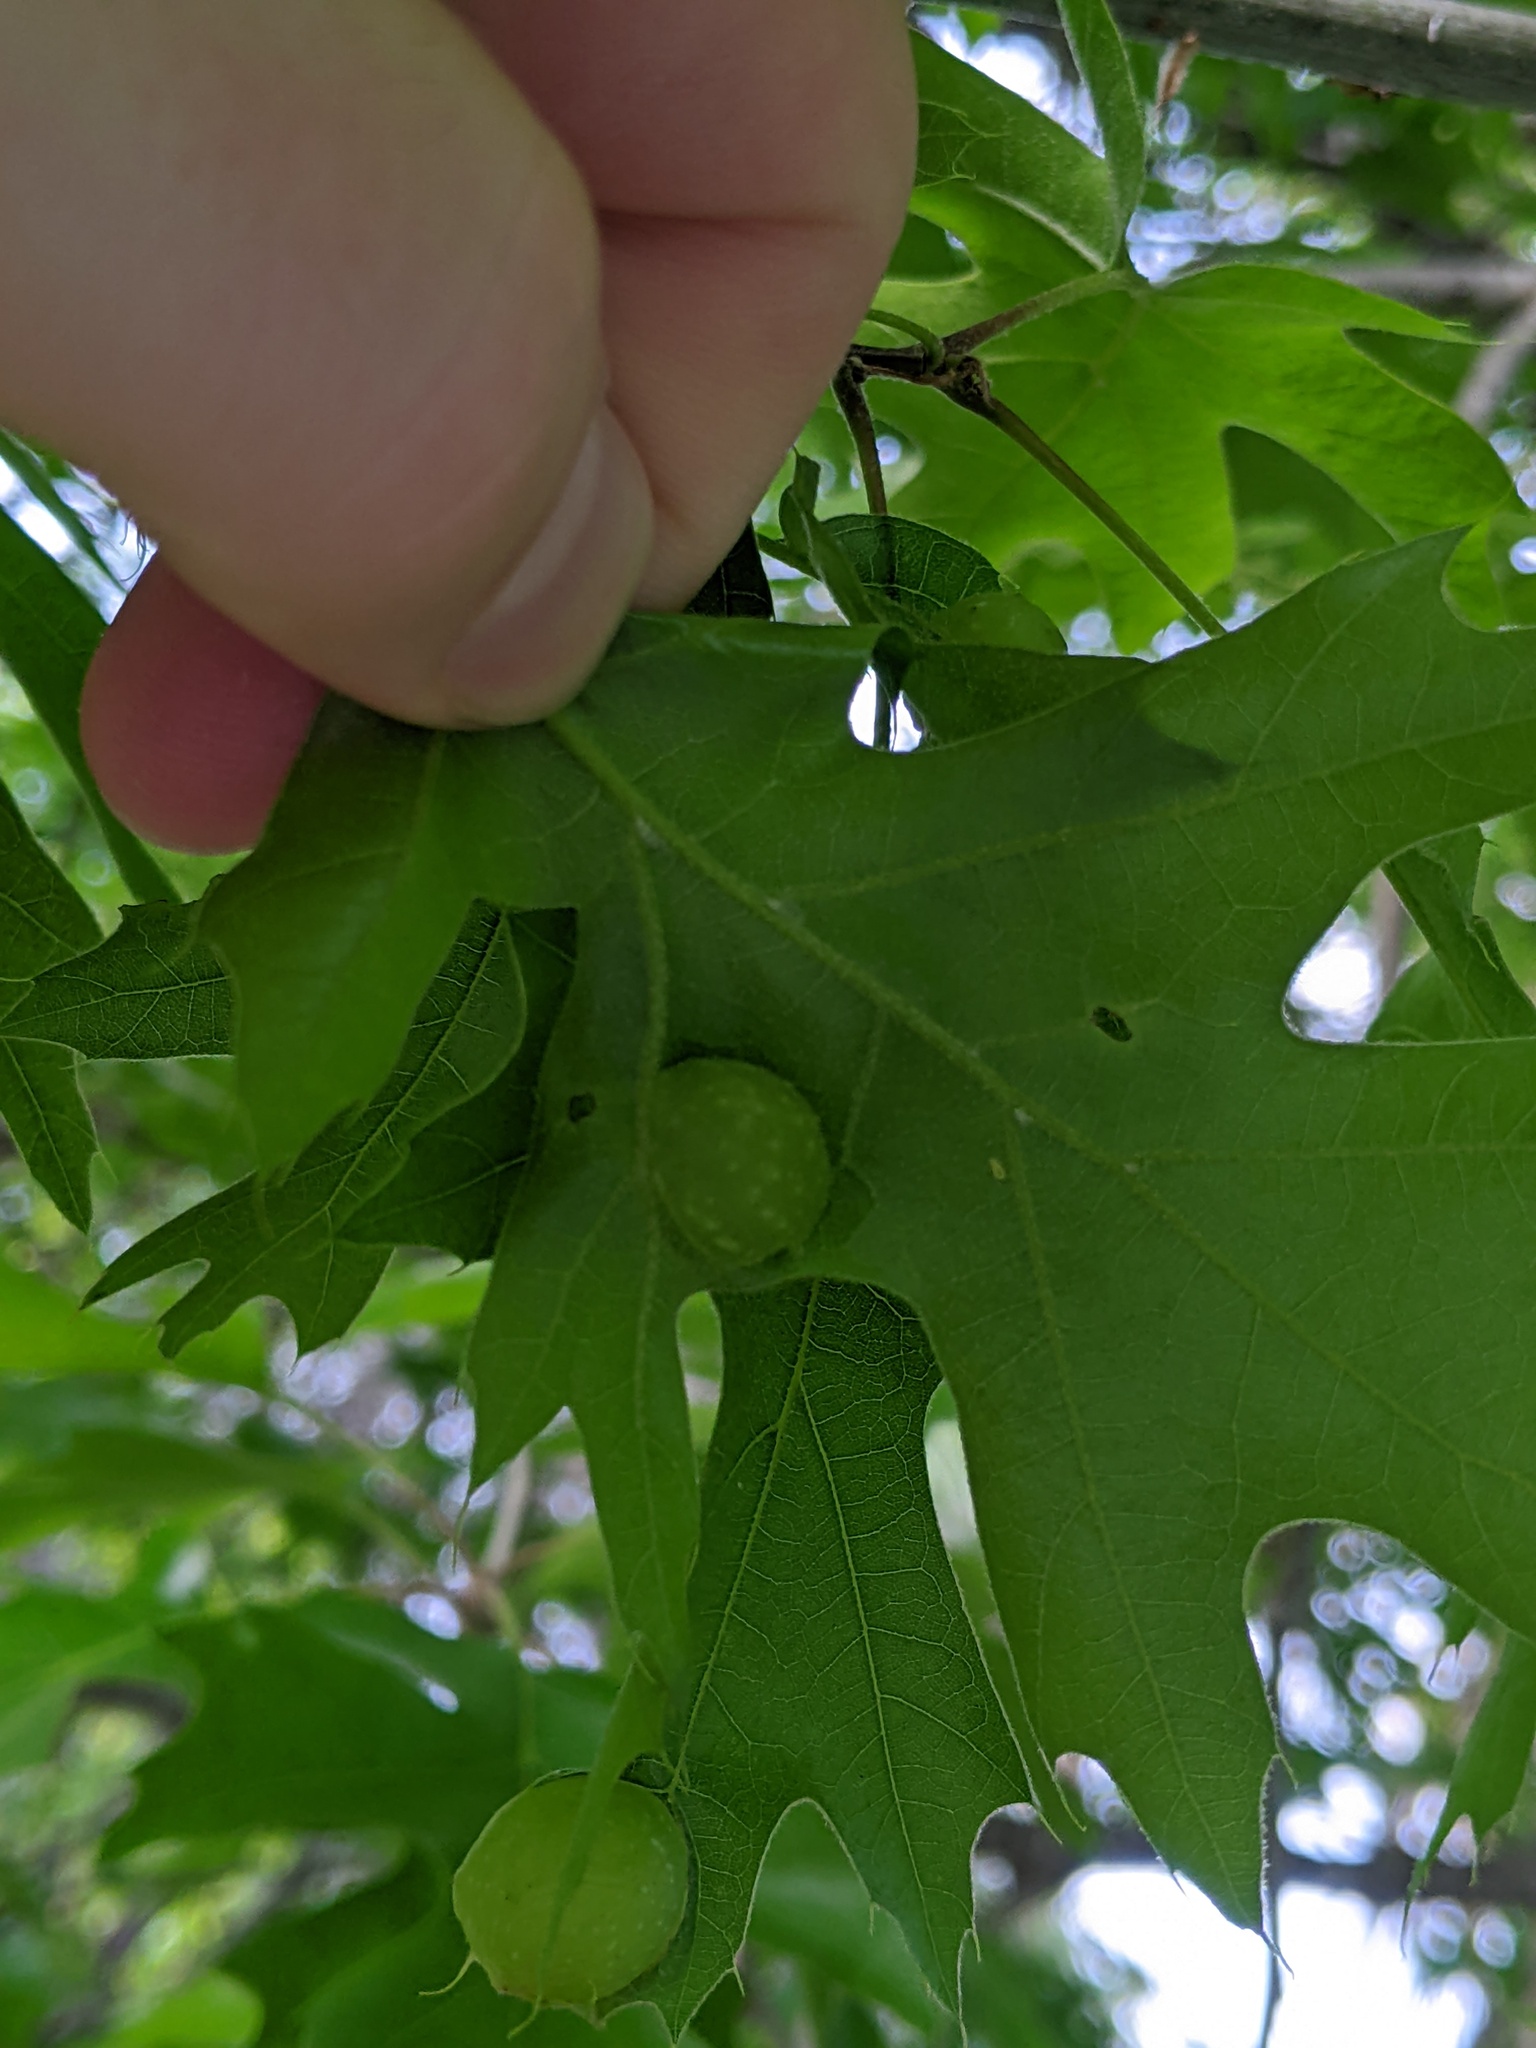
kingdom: Animalia
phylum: Arthropoda
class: Insecta
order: Hymenoptera
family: Cynipidae
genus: Dryocosmus
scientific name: Dryocosmus quercuspalustris
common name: Succulent oak gall wasp
